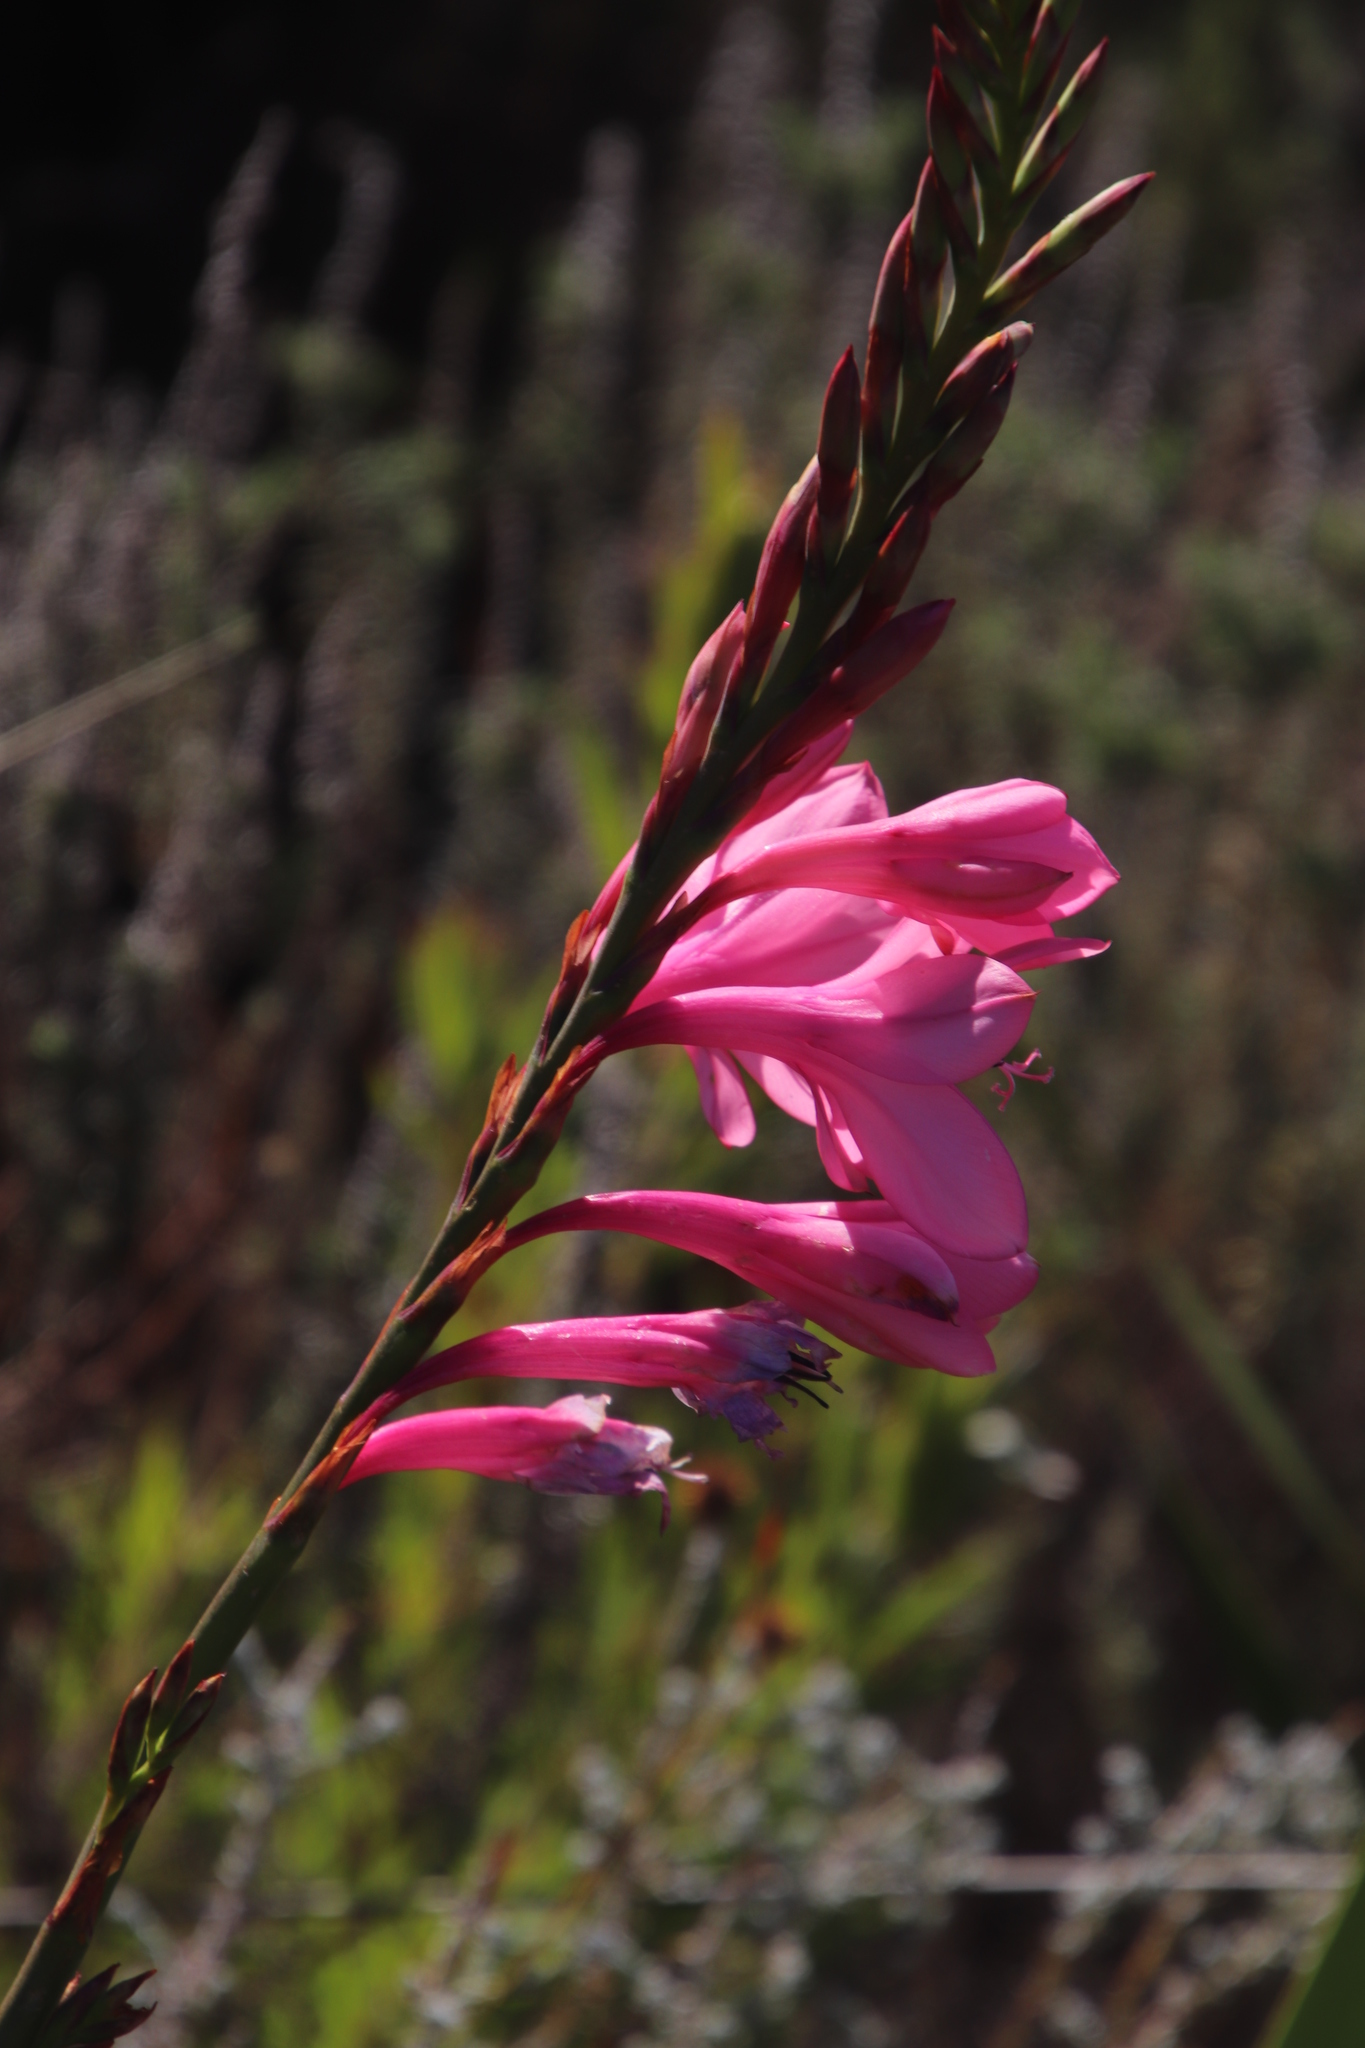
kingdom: Plantae
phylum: Tracheophyta
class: Liliopsida
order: Asparagales
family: Iridaceae
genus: Watsonia
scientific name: Watsonia borbonica
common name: Bugle-lily
